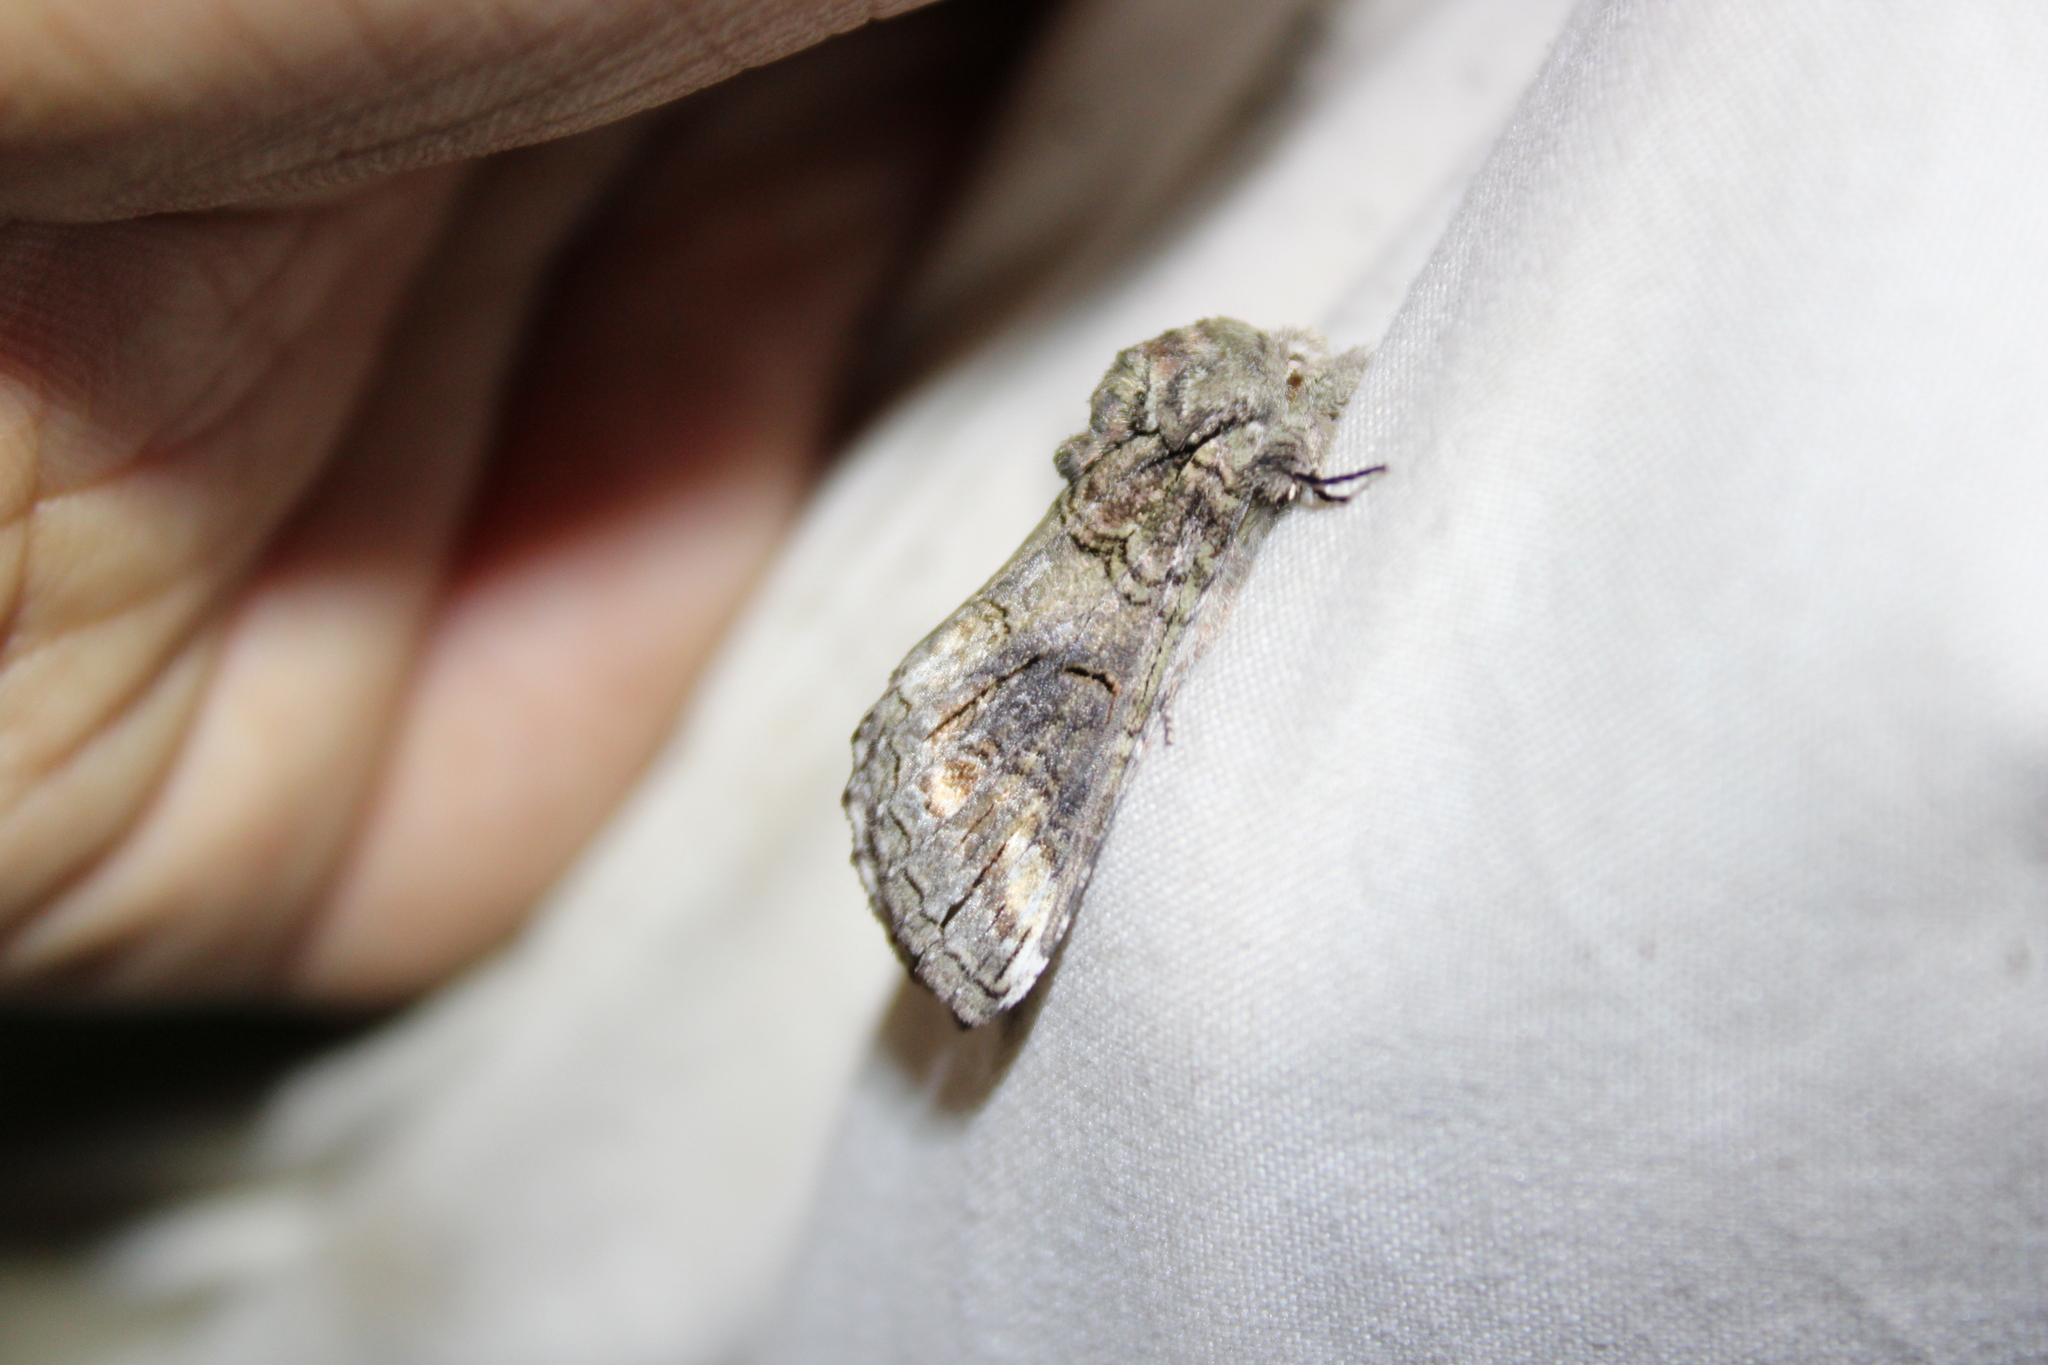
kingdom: Animalia
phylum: Arthropoda
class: Insecta
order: Lepidoptera
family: Notodontidae
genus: Heterocampa
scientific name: Heterocampa obliqua
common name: Oblique heterocampa
